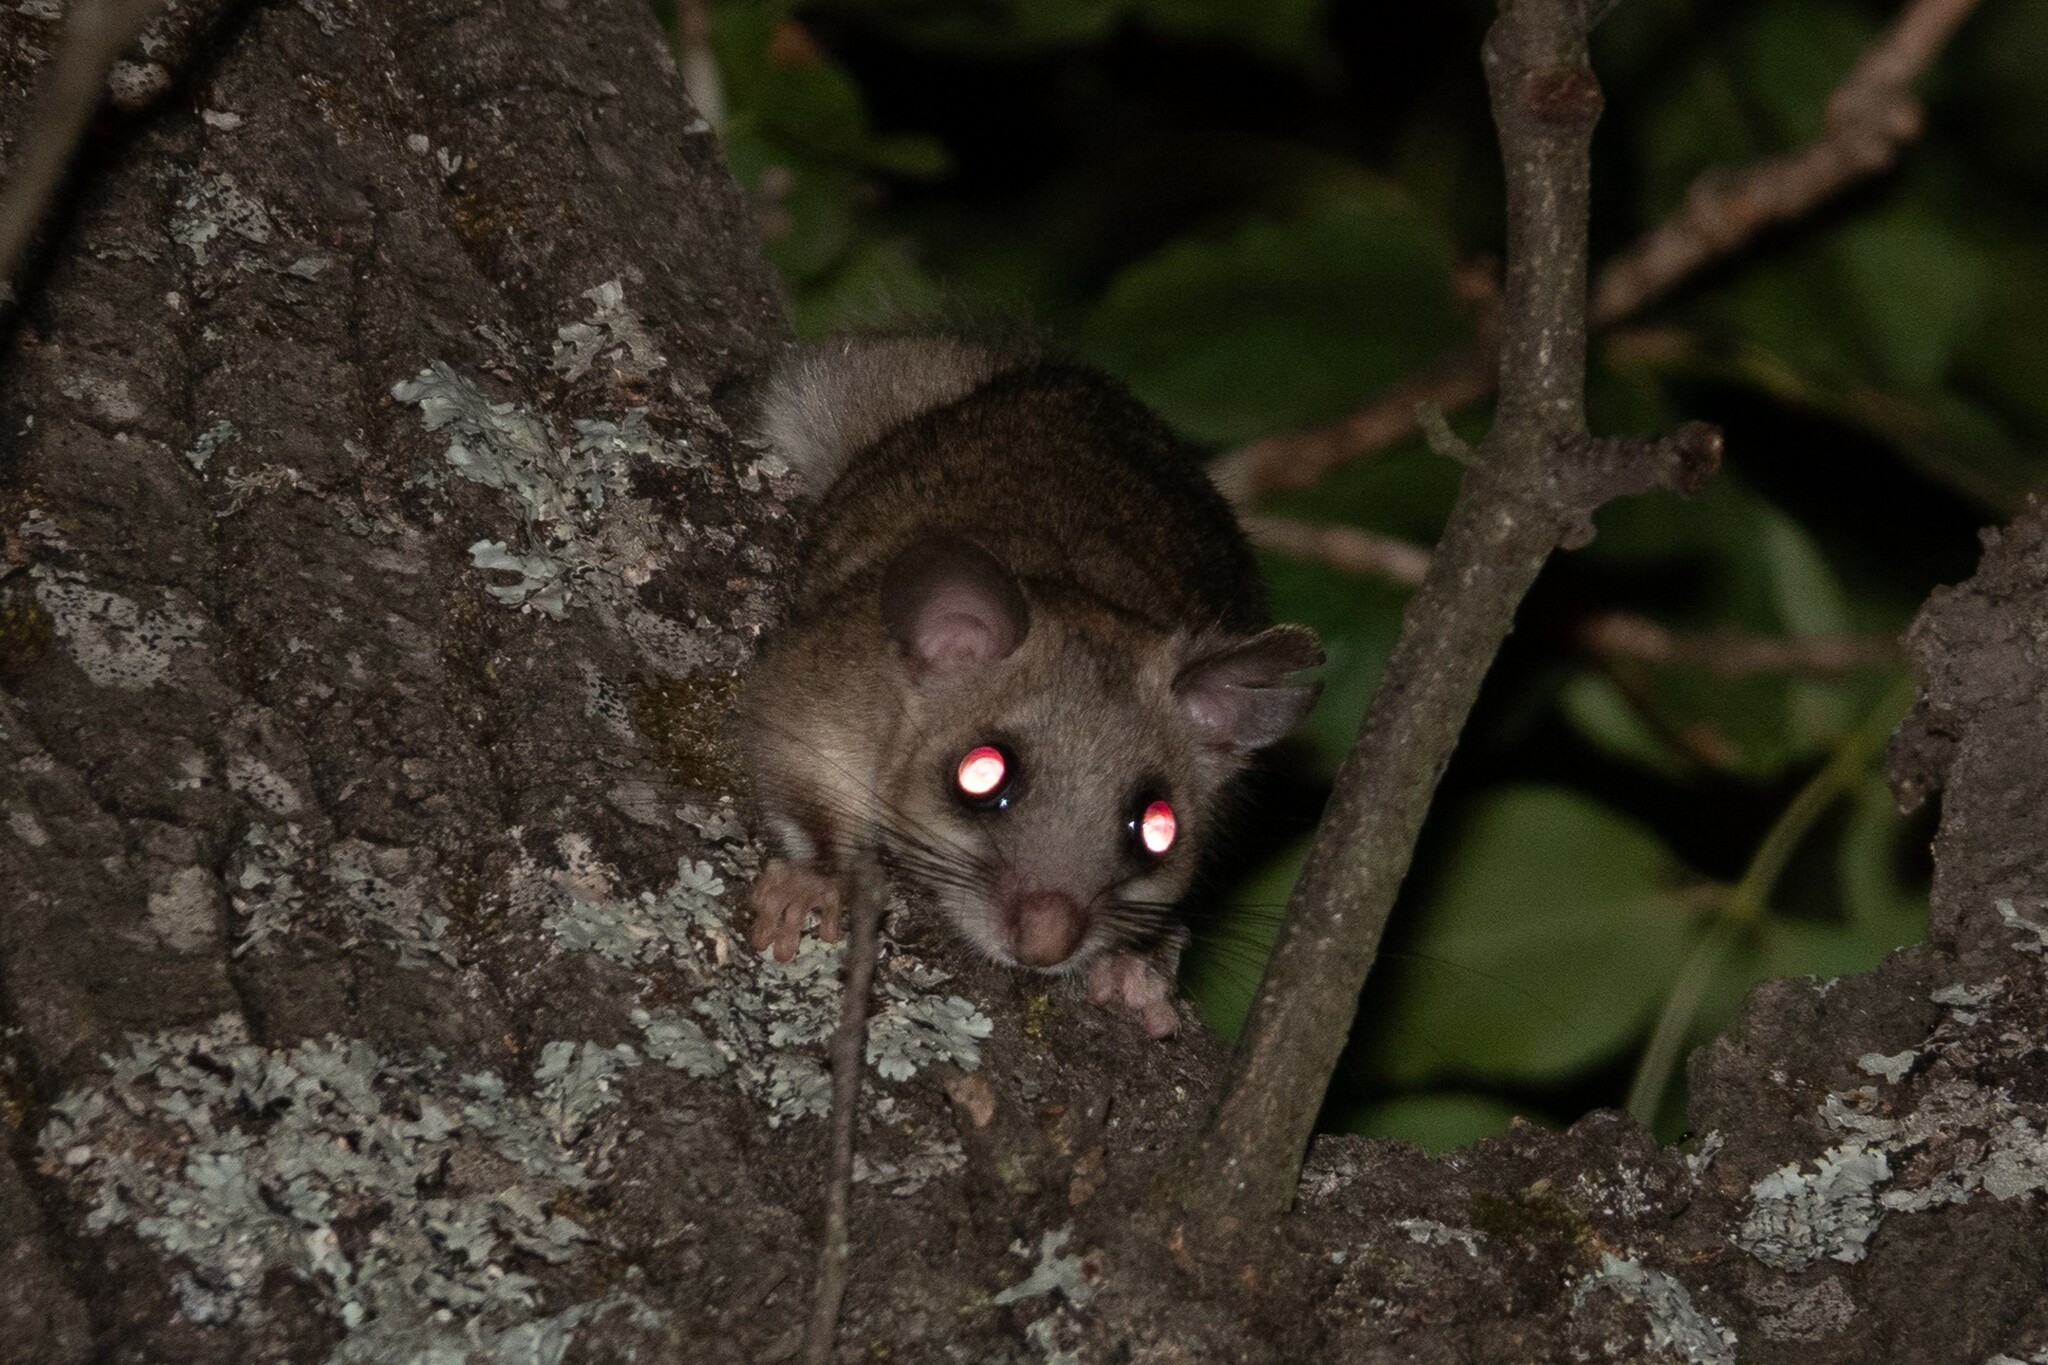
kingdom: Animalia
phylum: Chordata
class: Mammalia
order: Rodentia
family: Gliridae
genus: Glis
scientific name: Glis glis
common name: Fat dormouse
